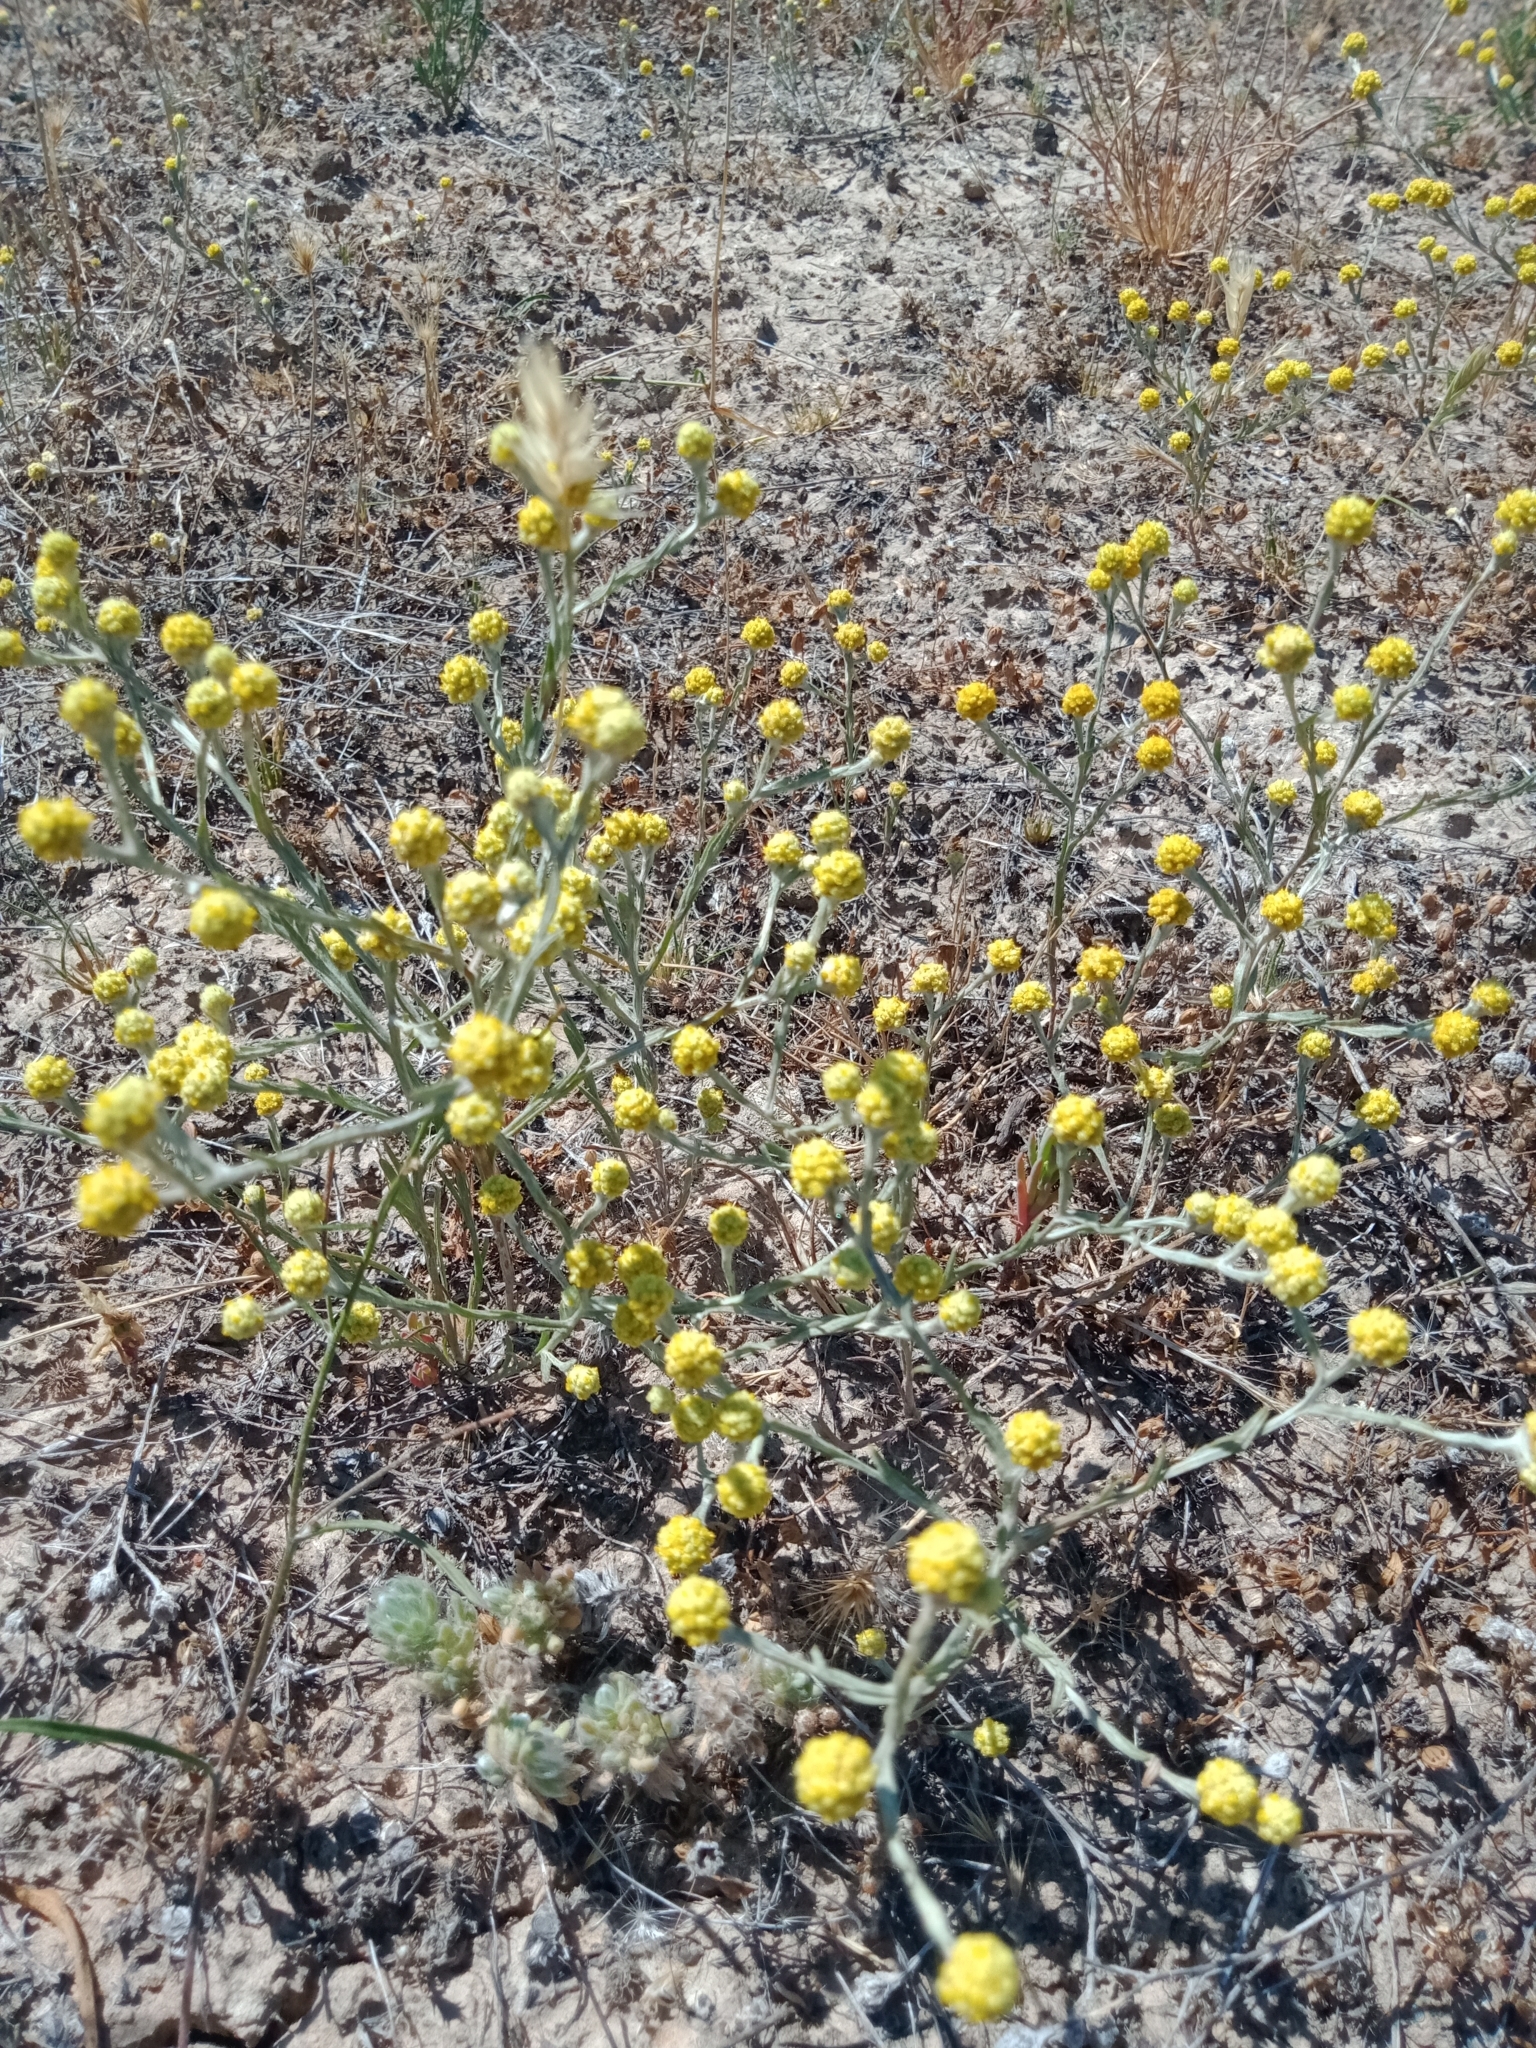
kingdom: Plantae
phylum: Tracheophyta
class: Magnoliopsida
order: Asterales
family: Asteraceae
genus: Calocephalus
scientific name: Calocephalus sonderi
